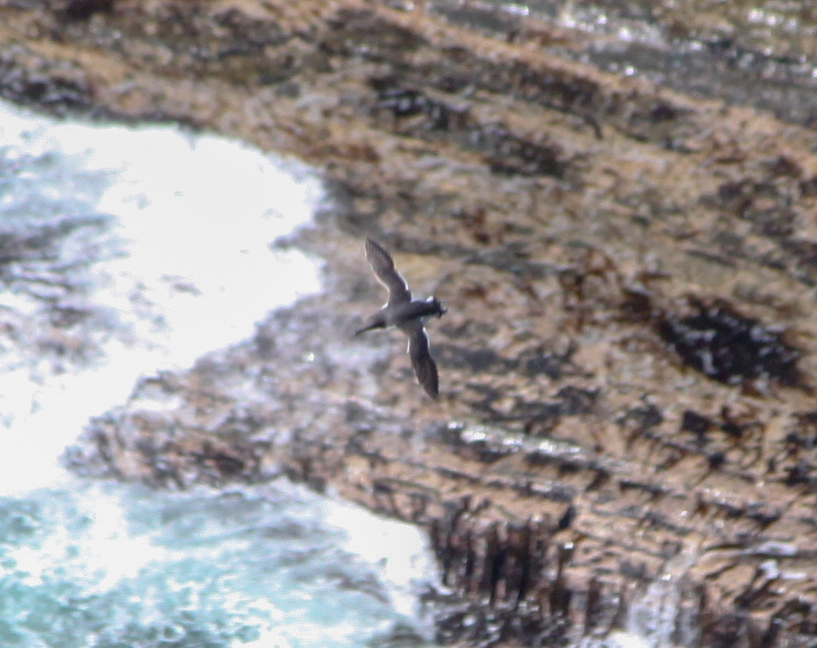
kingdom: Animalia
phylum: Chordata
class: Aves
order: Charadriiformes
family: Alcidae
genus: Uria
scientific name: Uria aalge
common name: Common murre
